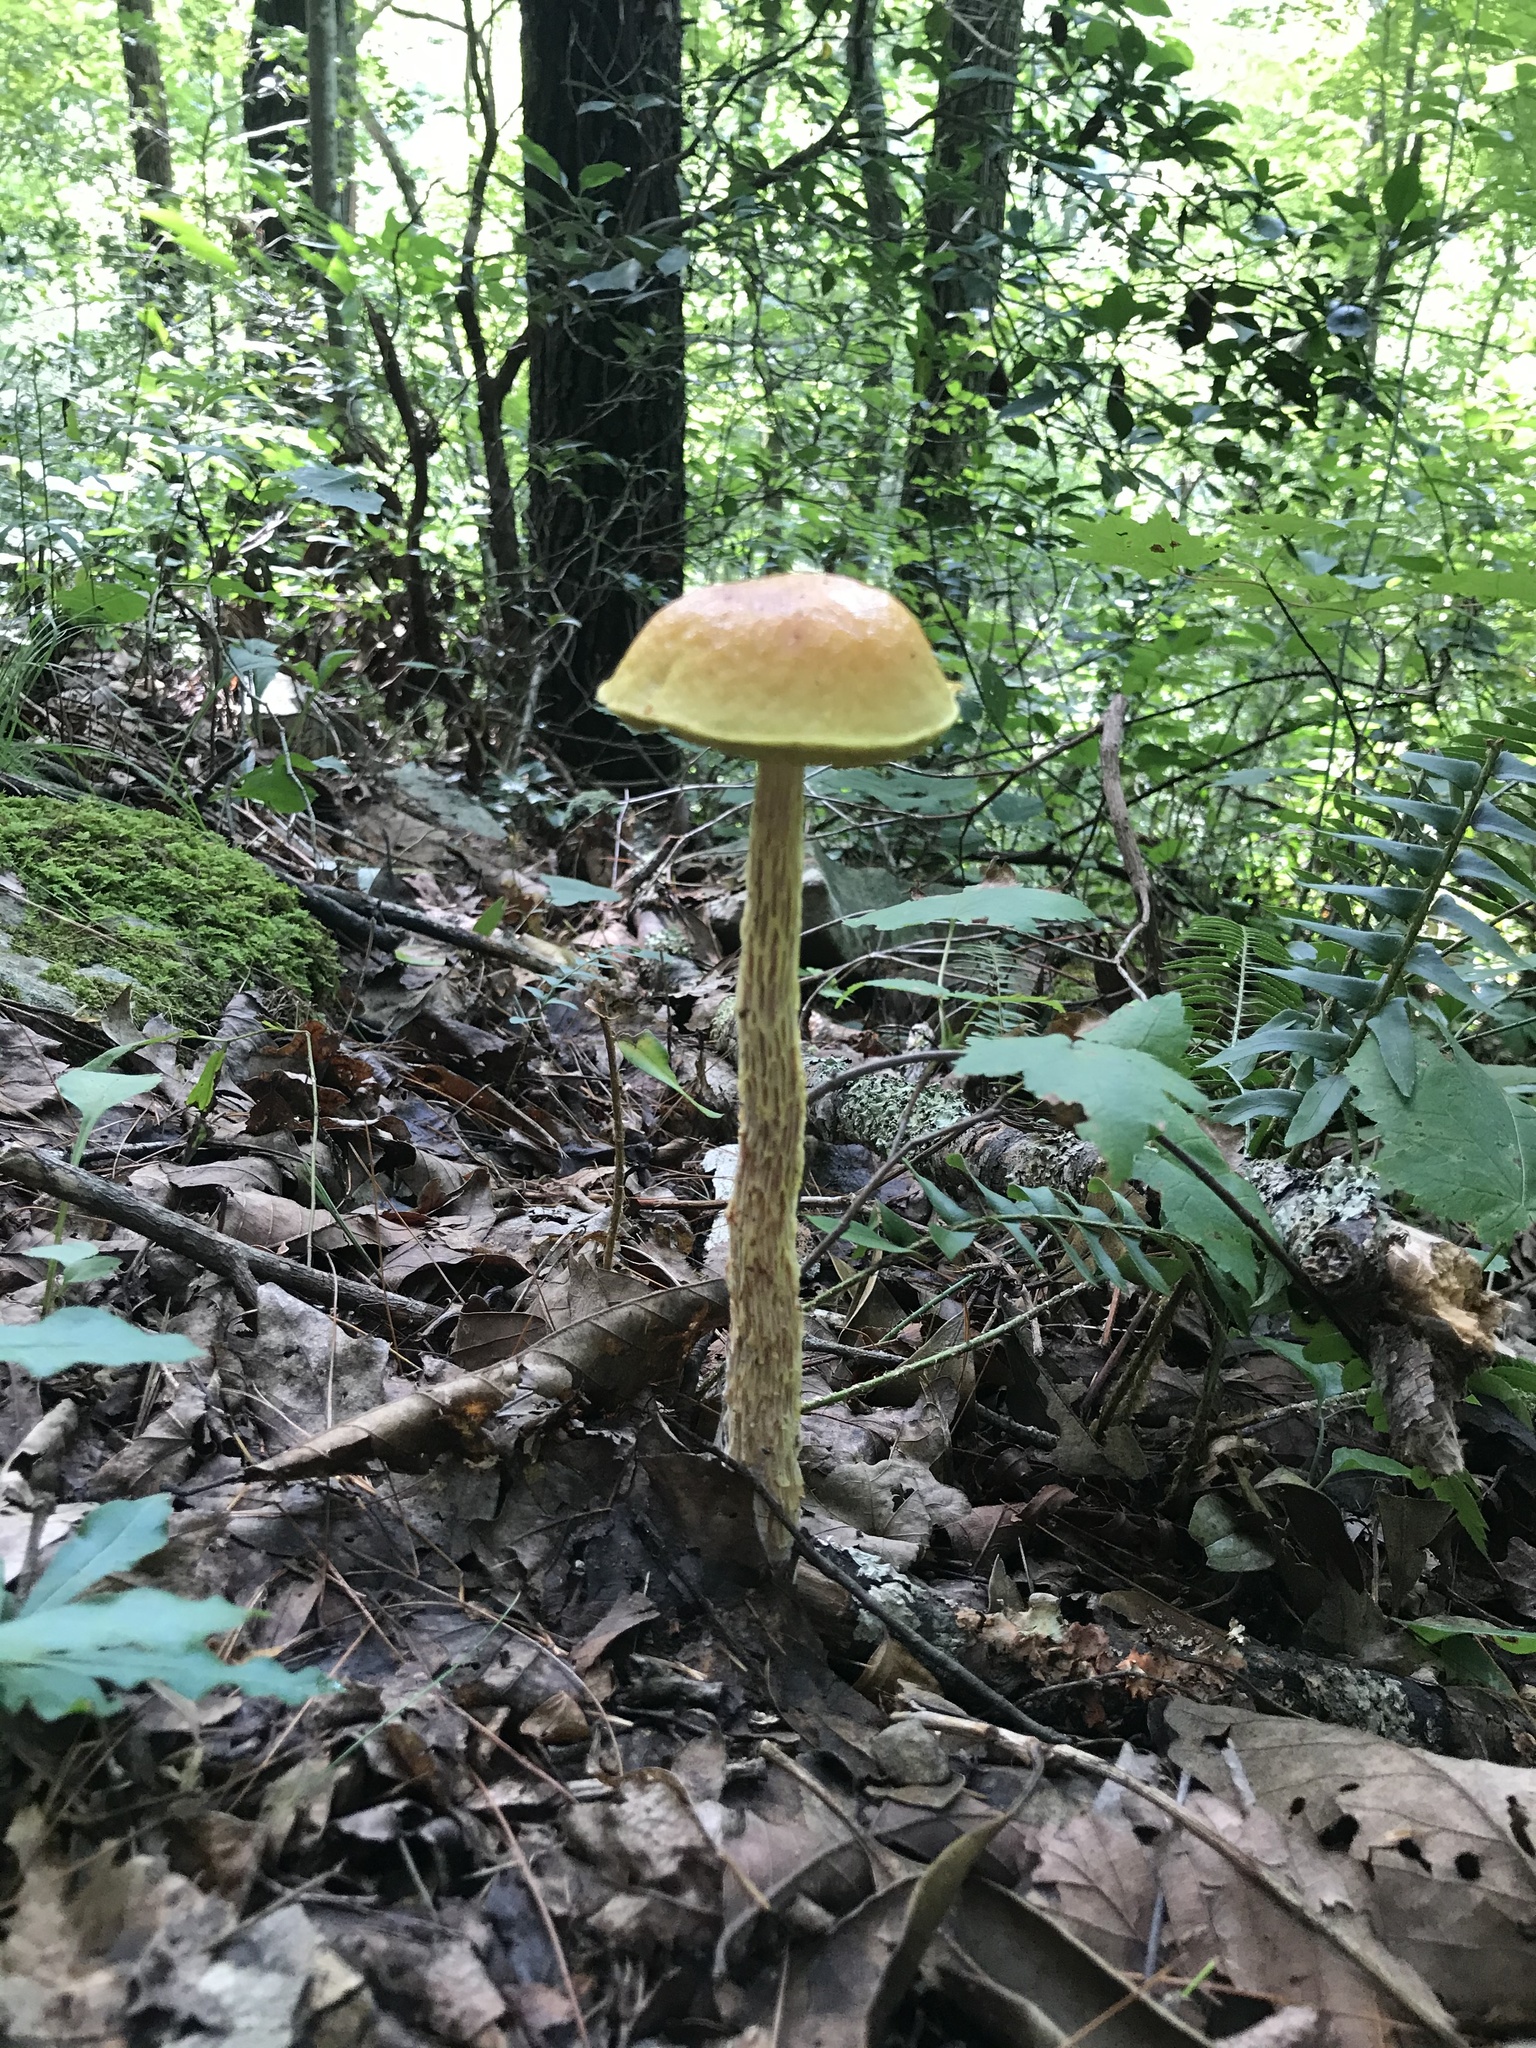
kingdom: Fungi
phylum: Basidiomycota
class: Agaricomycetes
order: Boletales
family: Boletaceae
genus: Aureoboletus
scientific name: Aureoboletus betula
